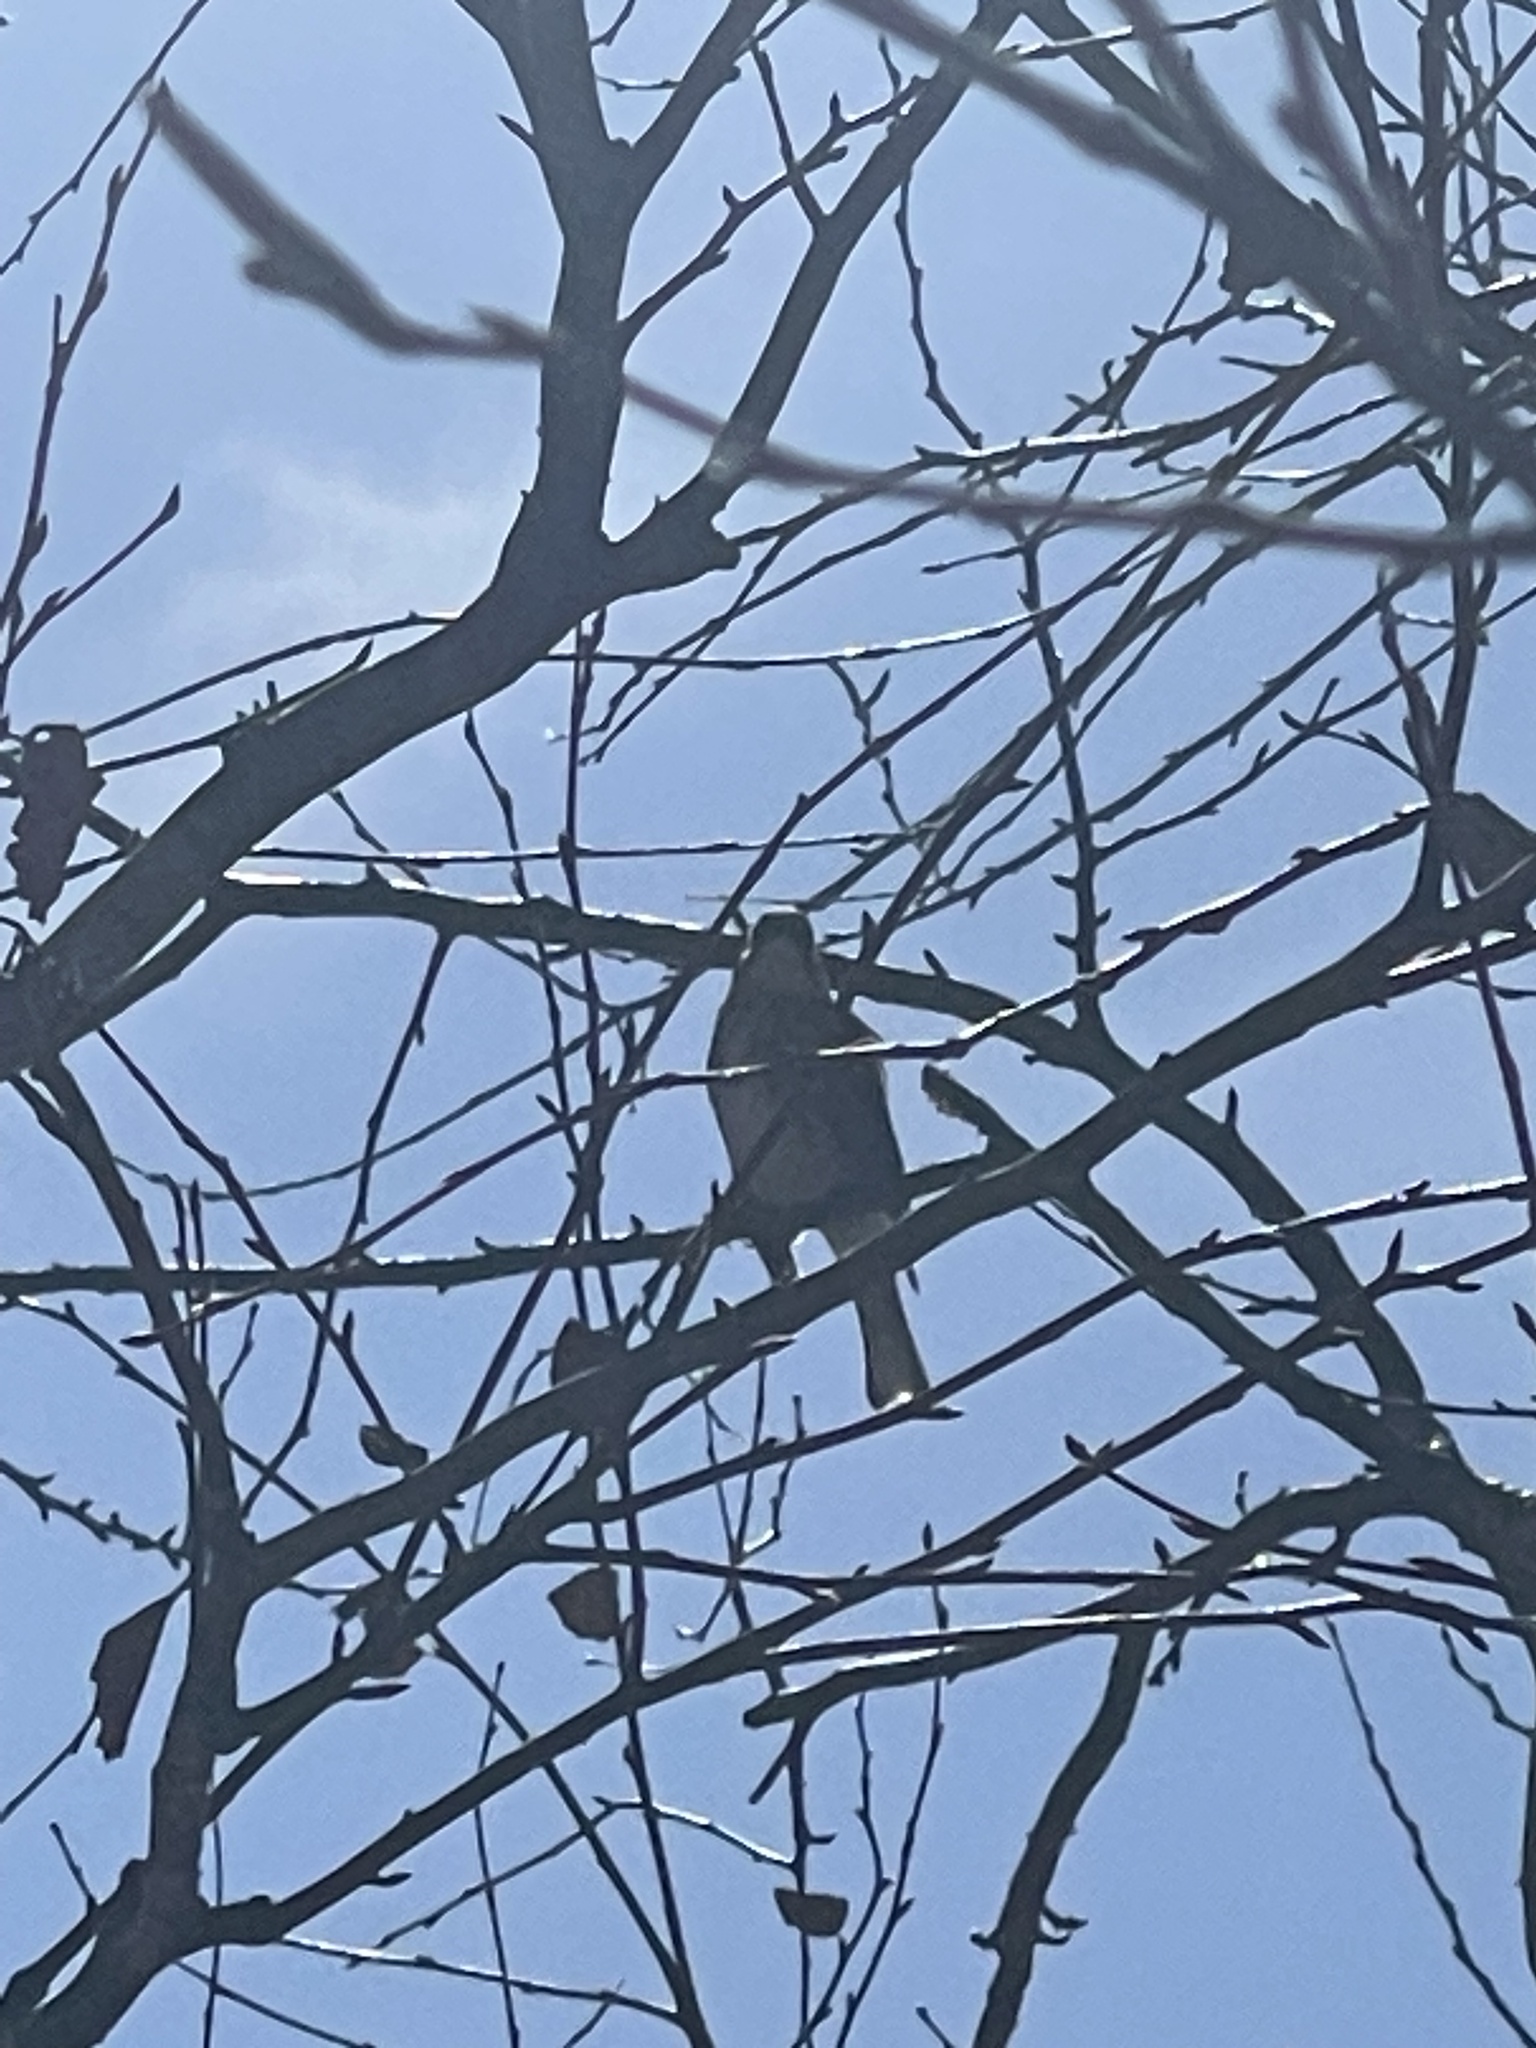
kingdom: Animalia
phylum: Chordata
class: Aves
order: Passeriformes
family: Parulidae
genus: Setophaga
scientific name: Setophaga coronata
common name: Myrtle warbler
